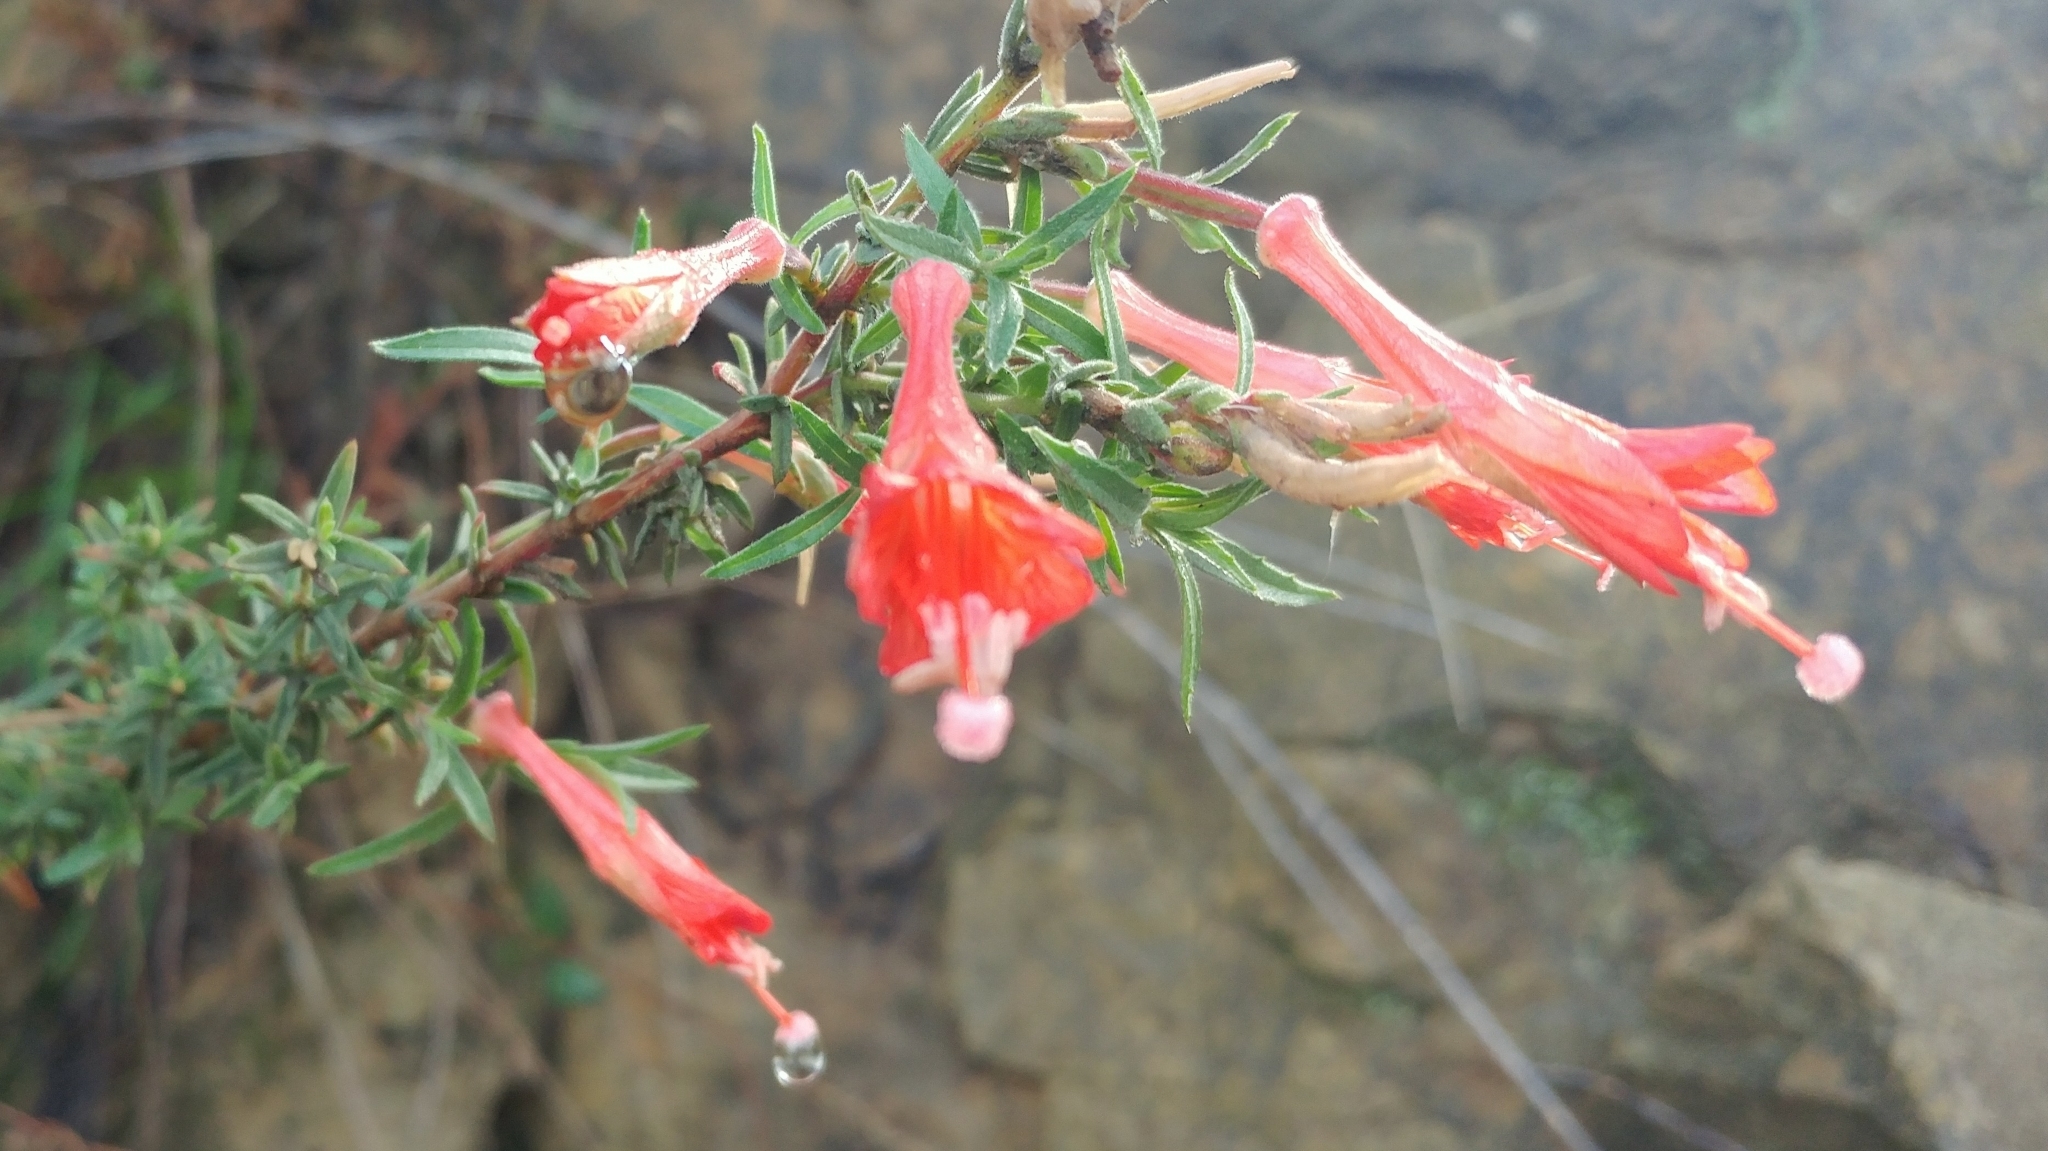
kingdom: Plantae
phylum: Tracheophyta
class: Magnoliopsida
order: Myrtales
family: Onagraceae
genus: Epilobium
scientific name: Epilobium canum
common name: California-fuchsia
